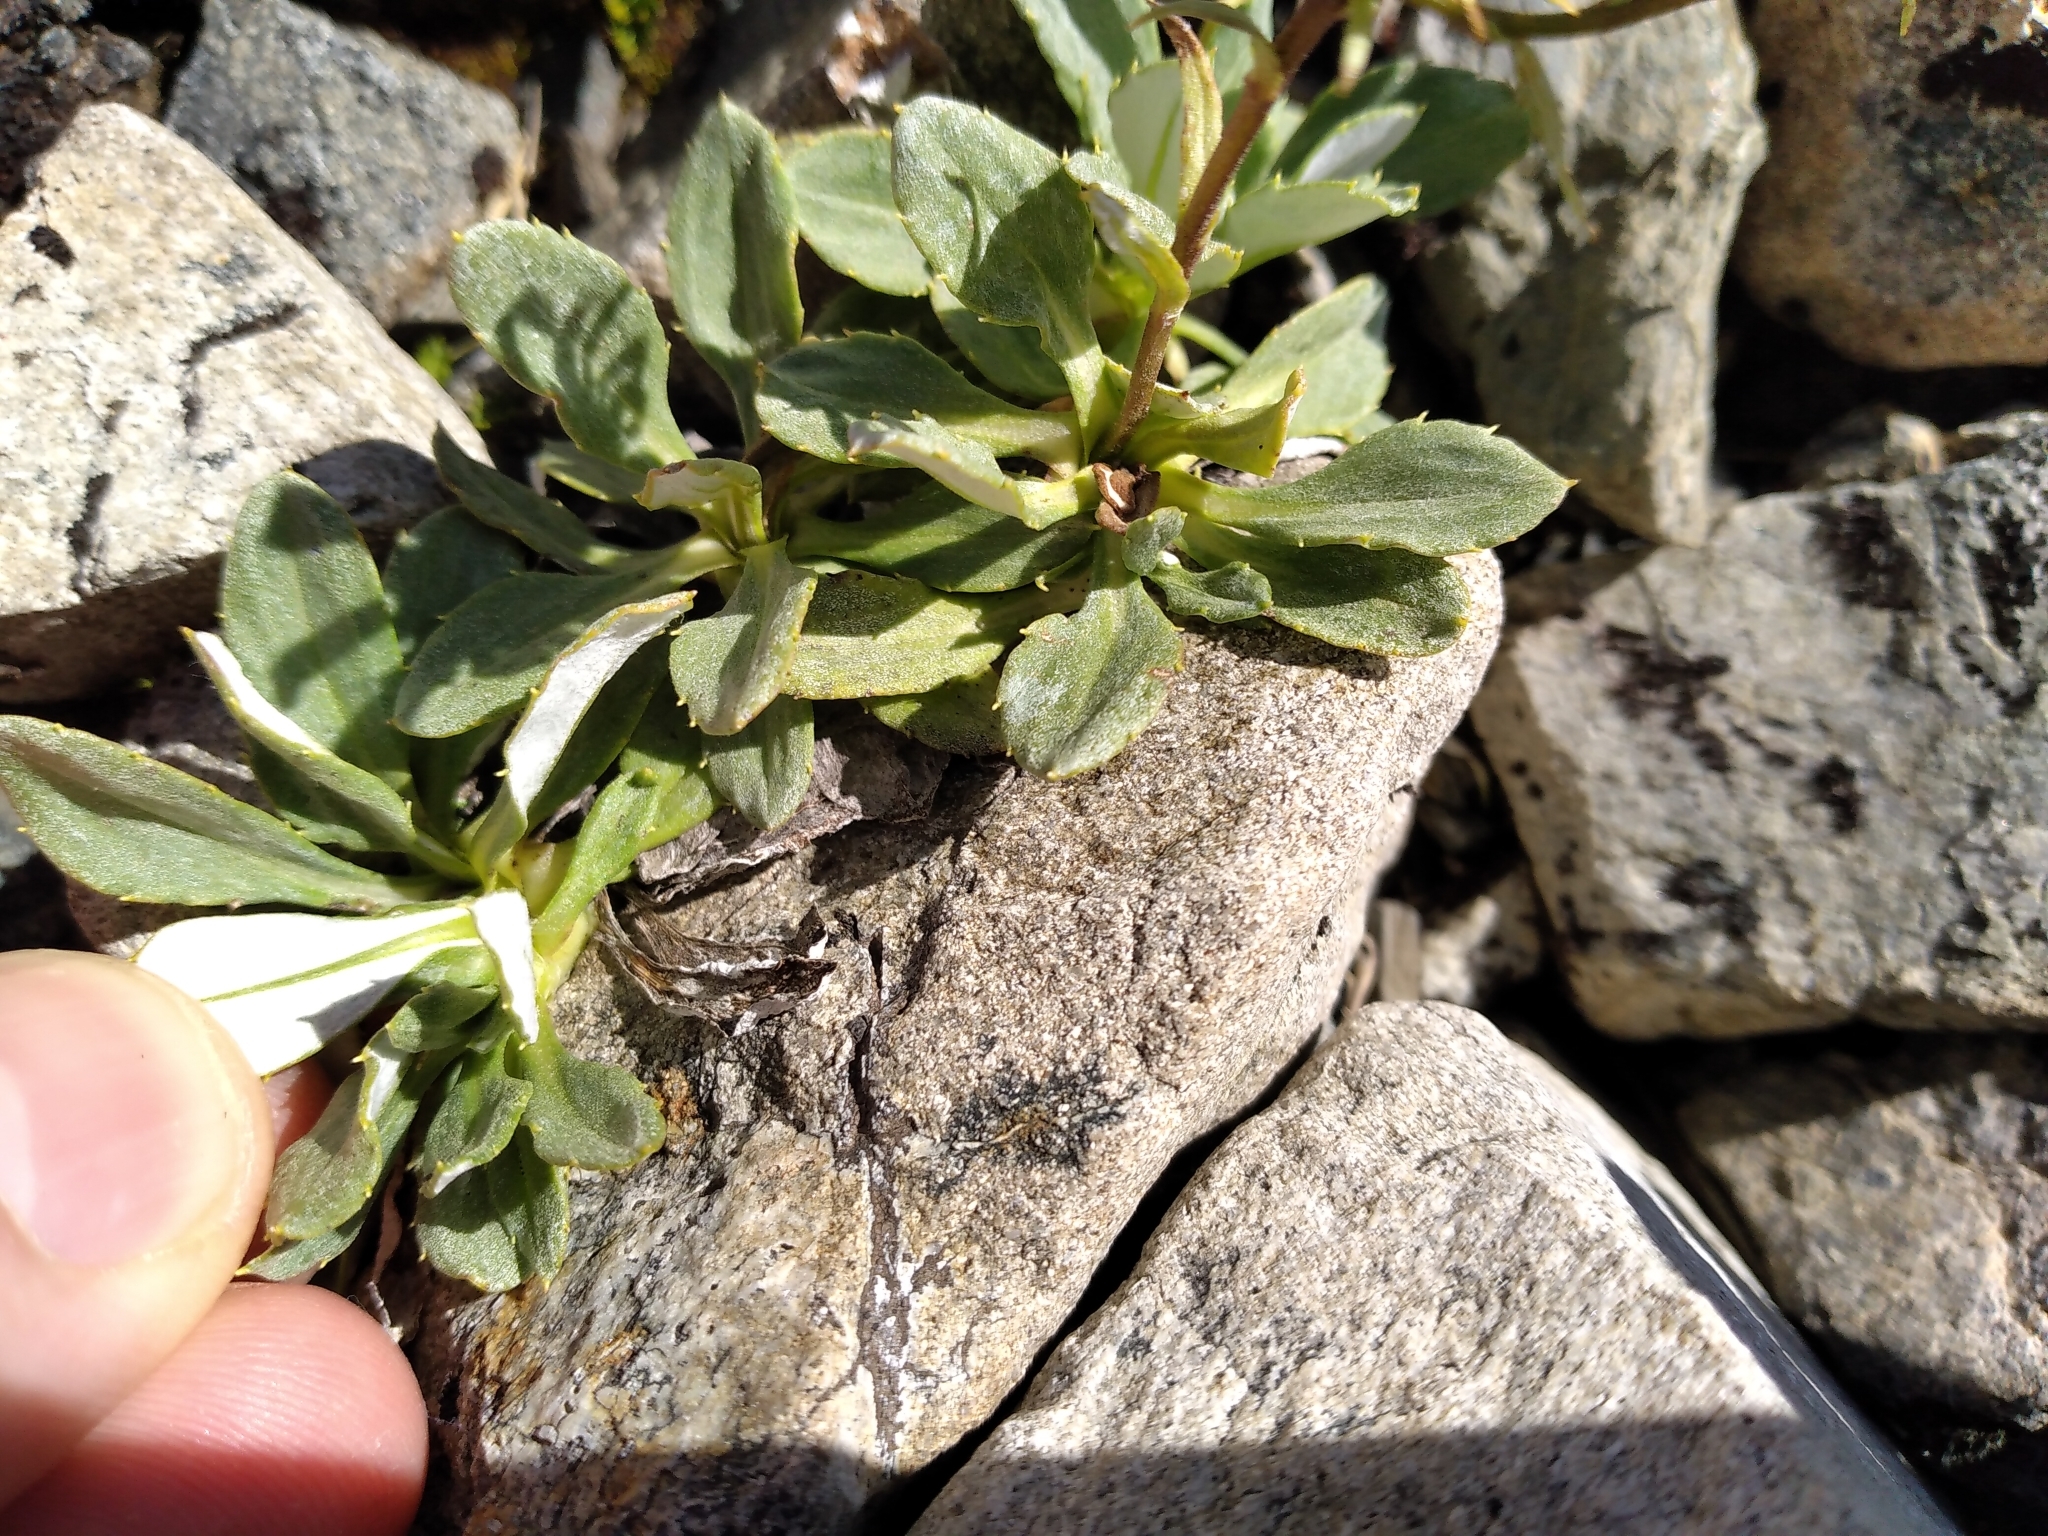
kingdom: Plantae
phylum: Tracheophyta
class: Magnoliopsida
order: Asterales
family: Asteraceae
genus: Celmisia
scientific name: Celmisia durietzii
